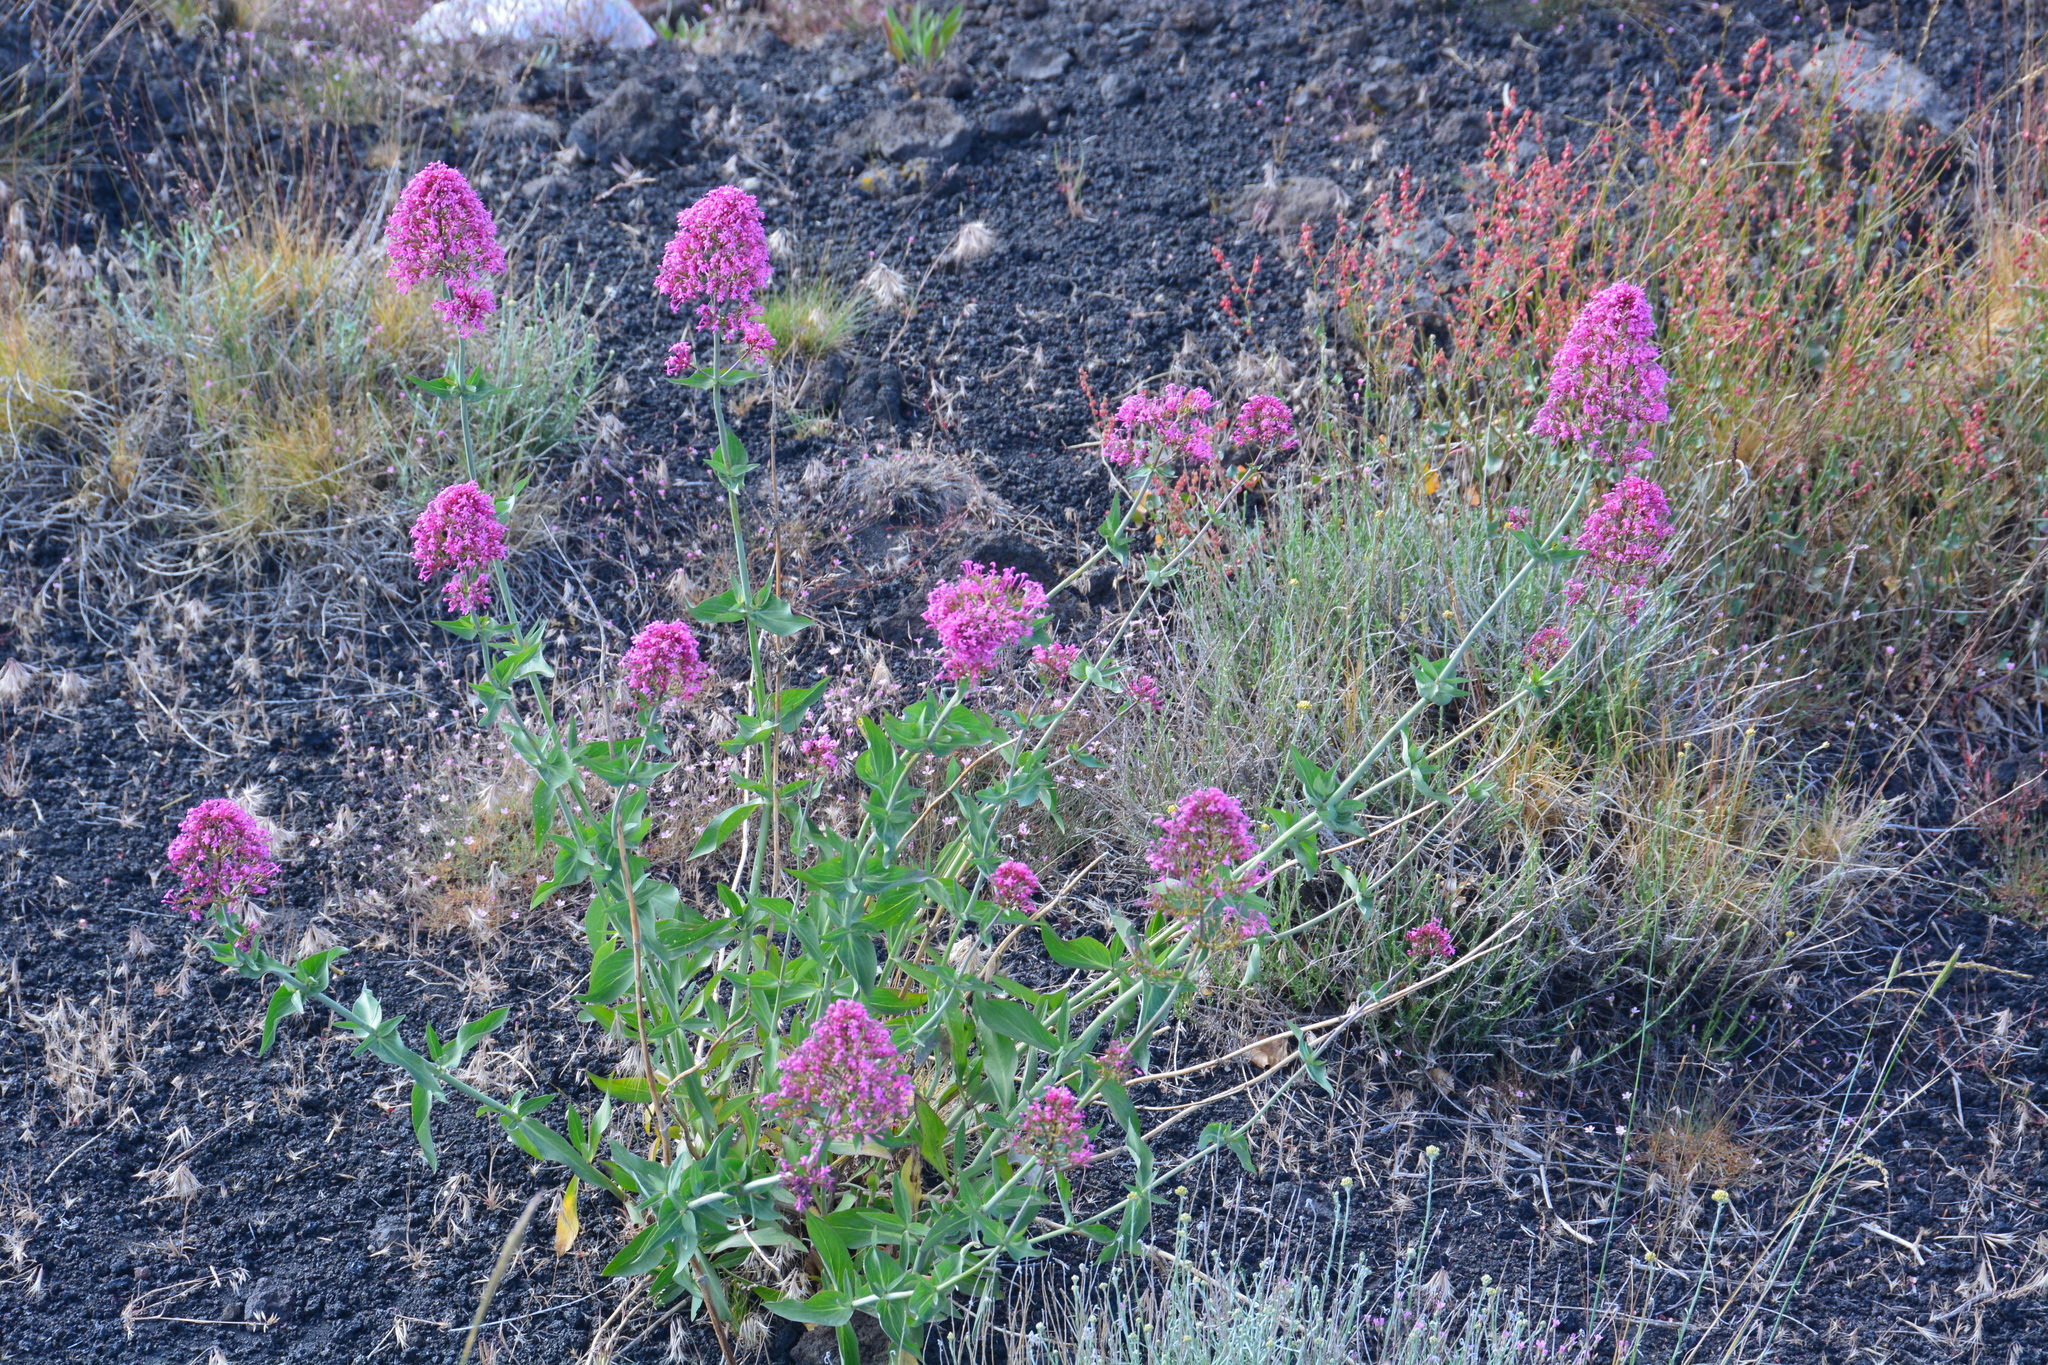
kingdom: Plantae
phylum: Tracheophyta
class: Magnoliopsida
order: Dipsacales
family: Caprifoliaceae
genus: Centranthus
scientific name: Centranthus ruber
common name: Red valerian
